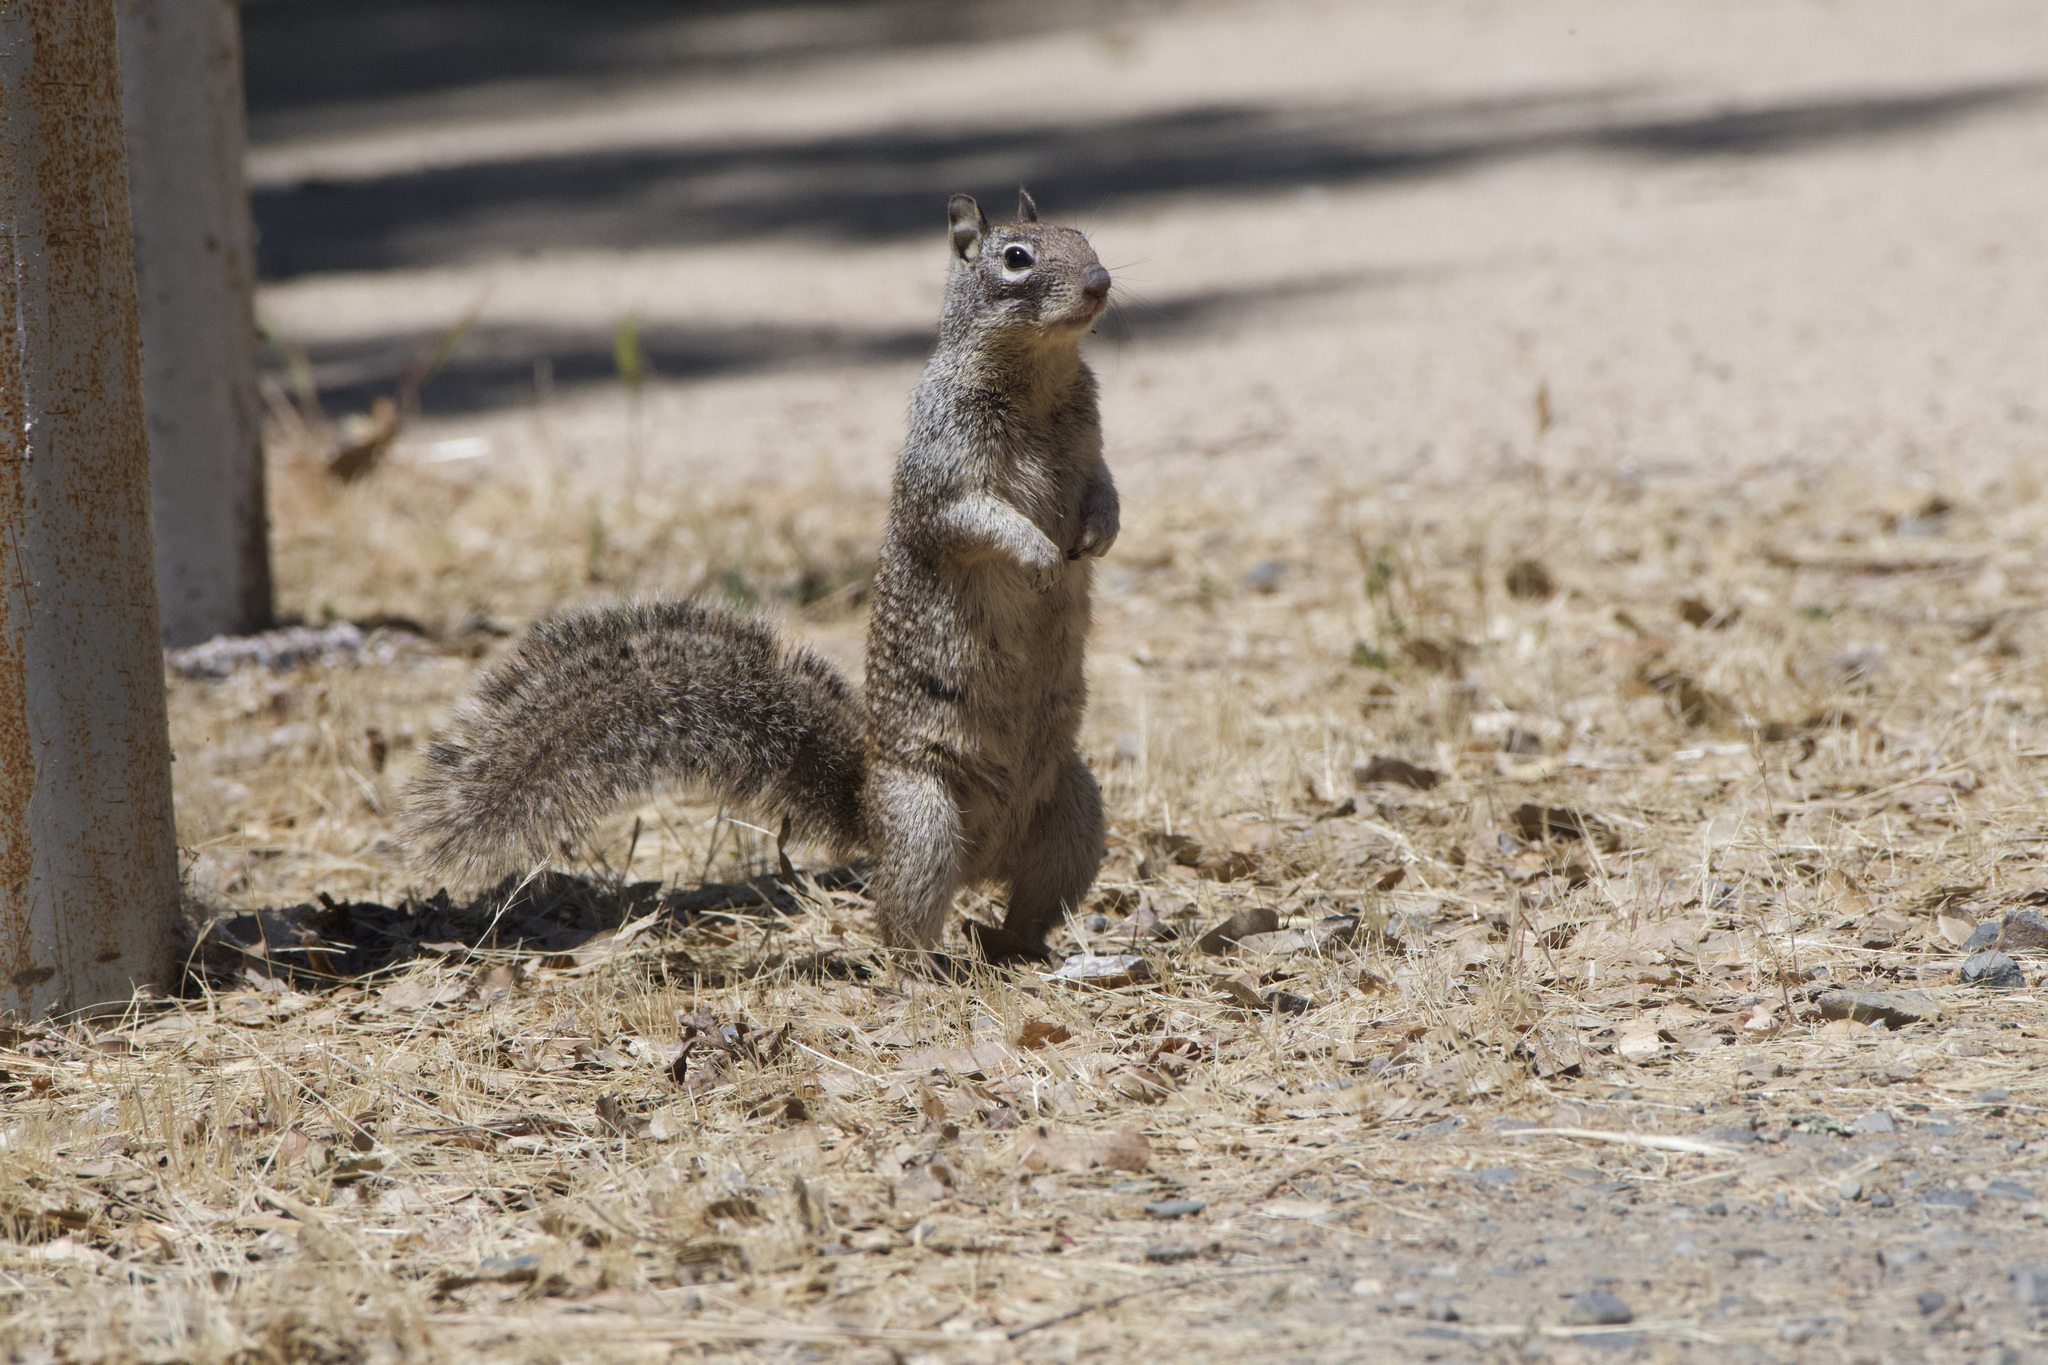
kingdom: Animalia
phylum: Chordata
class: Mammalia
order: Rodentia
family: Sciuridae
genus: Otospermophilus
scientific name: Otospermophilus beecheyi
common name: California ground squirrel
